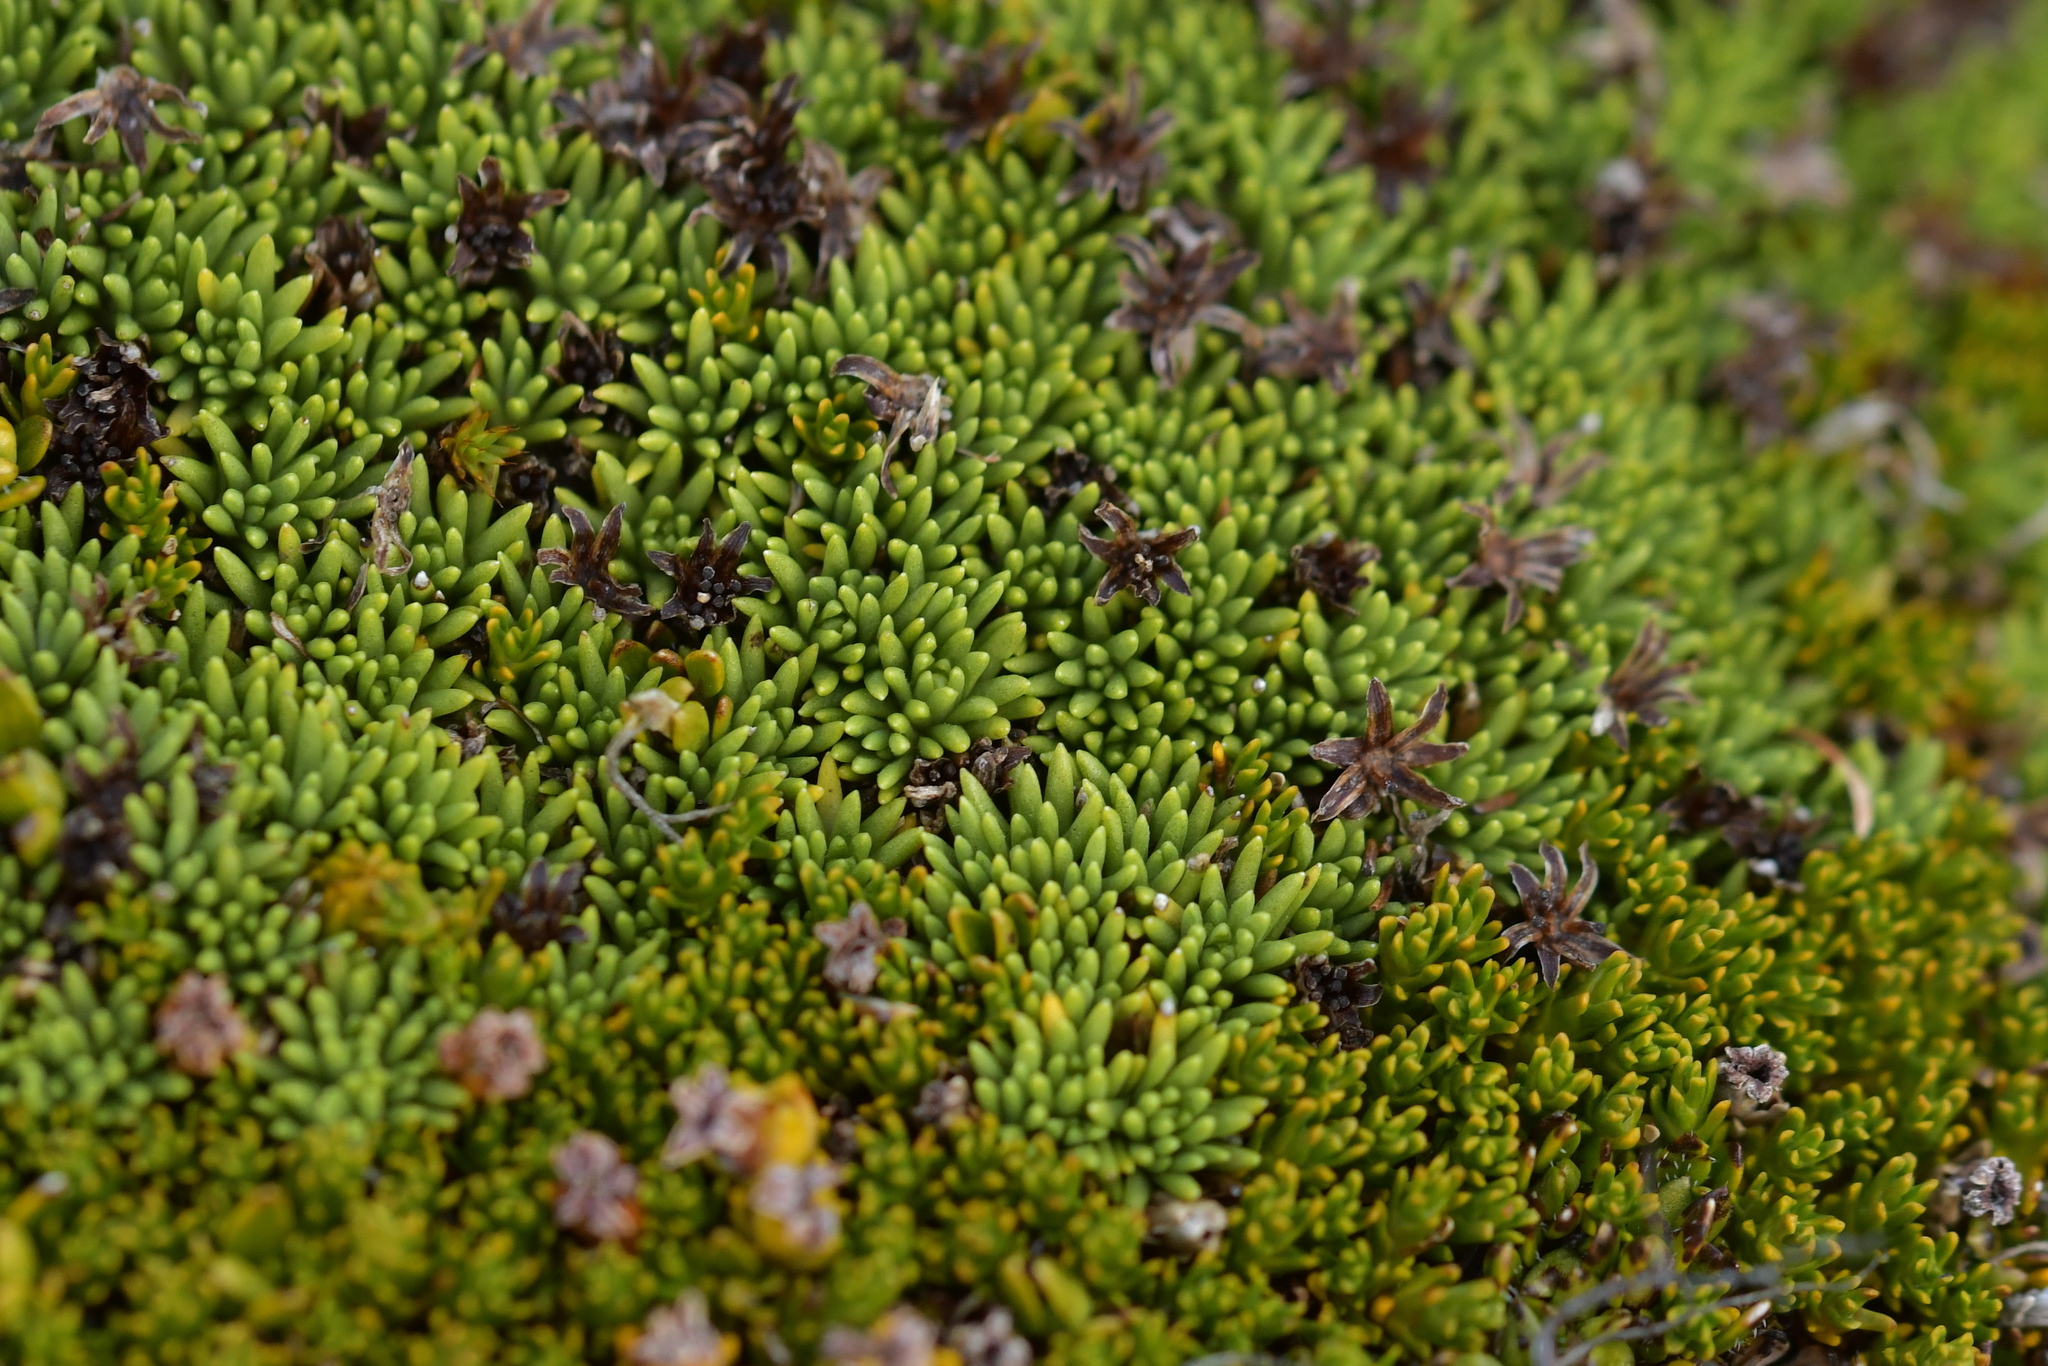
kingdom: Plantae
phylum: Tracheophyta
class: Magnoliopsida
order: Asterales
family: Asteraceae
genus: Abrotanella
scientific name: Abrotanella inconspicua
